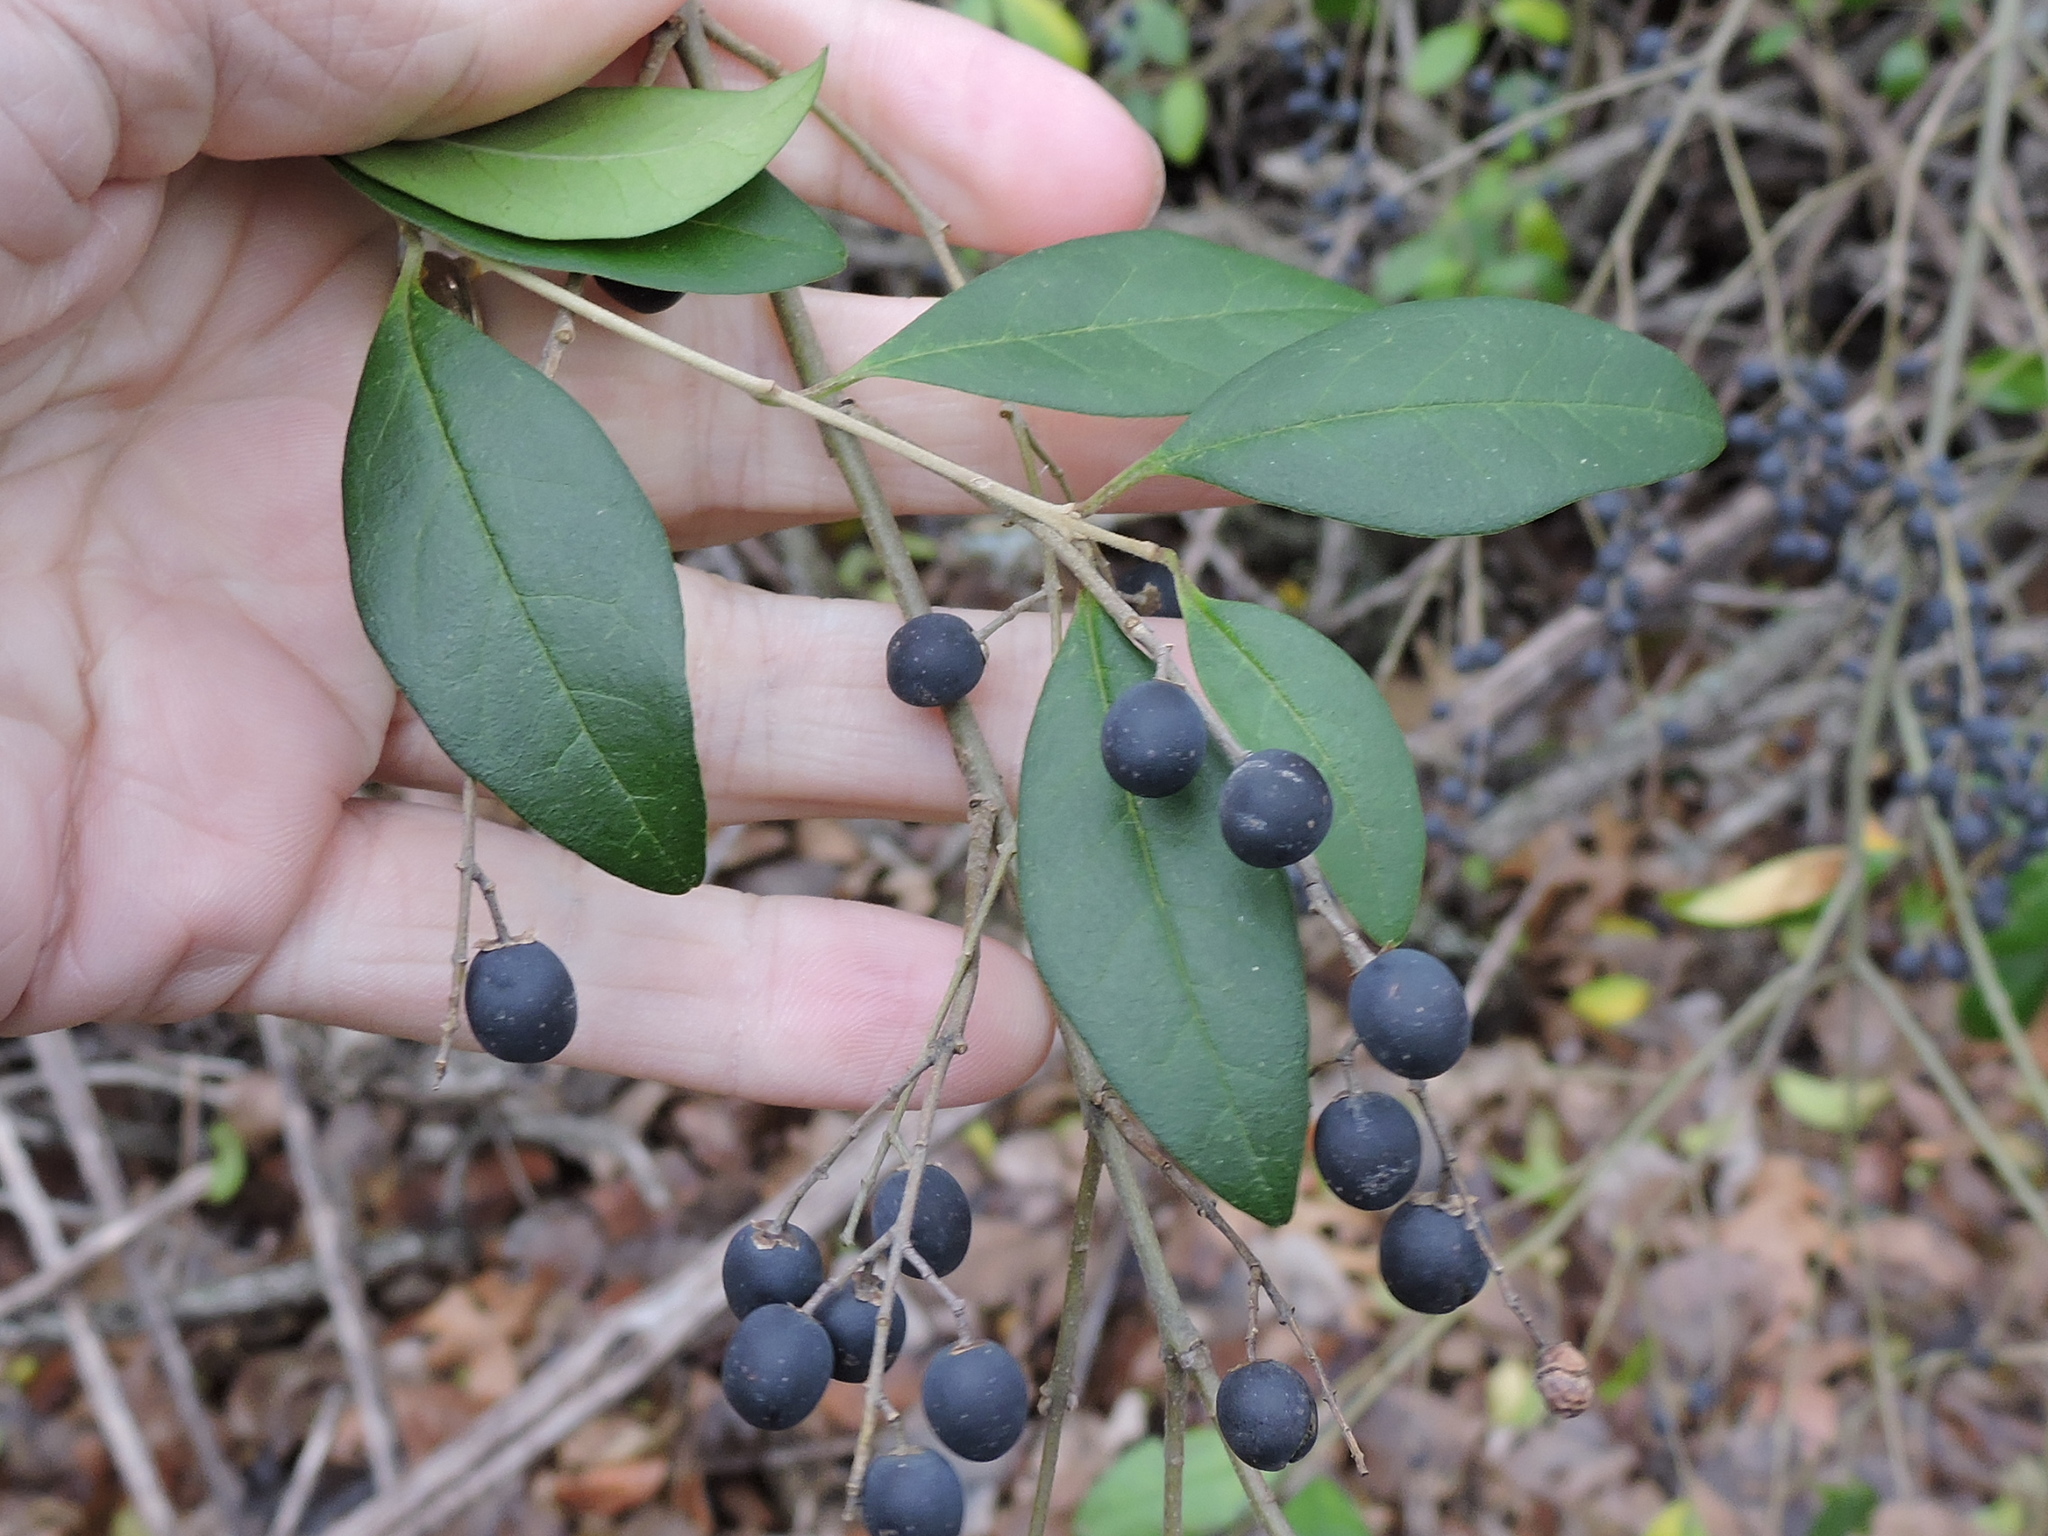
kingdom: Plantae
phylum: Tracheophyta
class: Magnoliopsida
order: Lamiales
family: Oleaceae
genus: Ligustrum
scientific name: Ligustrum sinense
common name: Chinese privet
